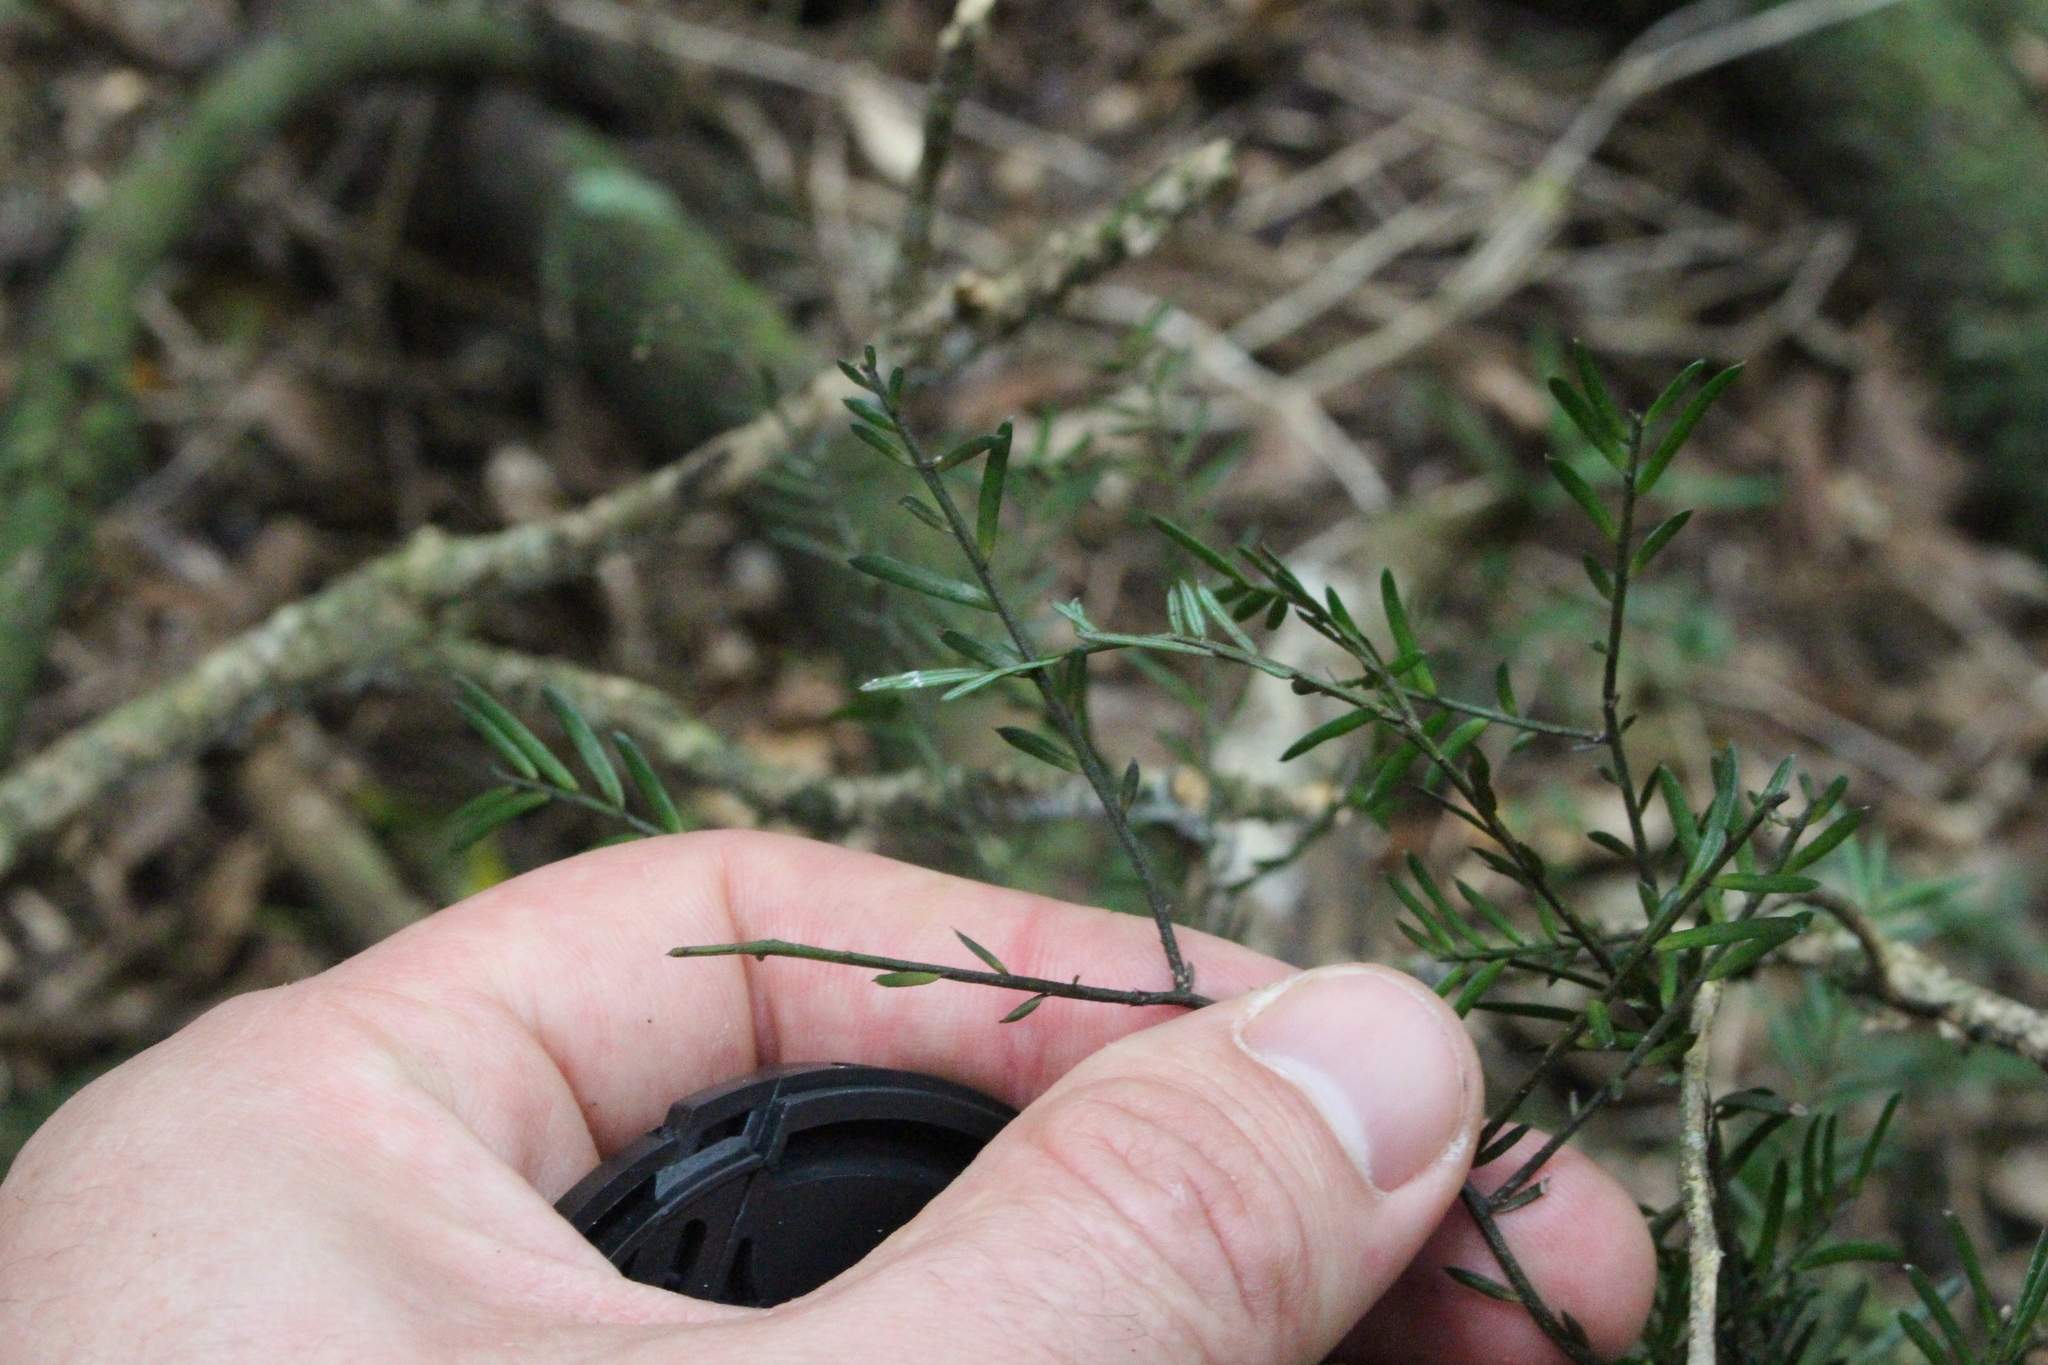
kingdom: Plantae
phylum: Tracheophyta
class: Pinopsida
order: Pinales
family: Podocarpaceae
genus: Prumnopitys
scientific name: Prumnopitys taxifolia
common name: Matai
